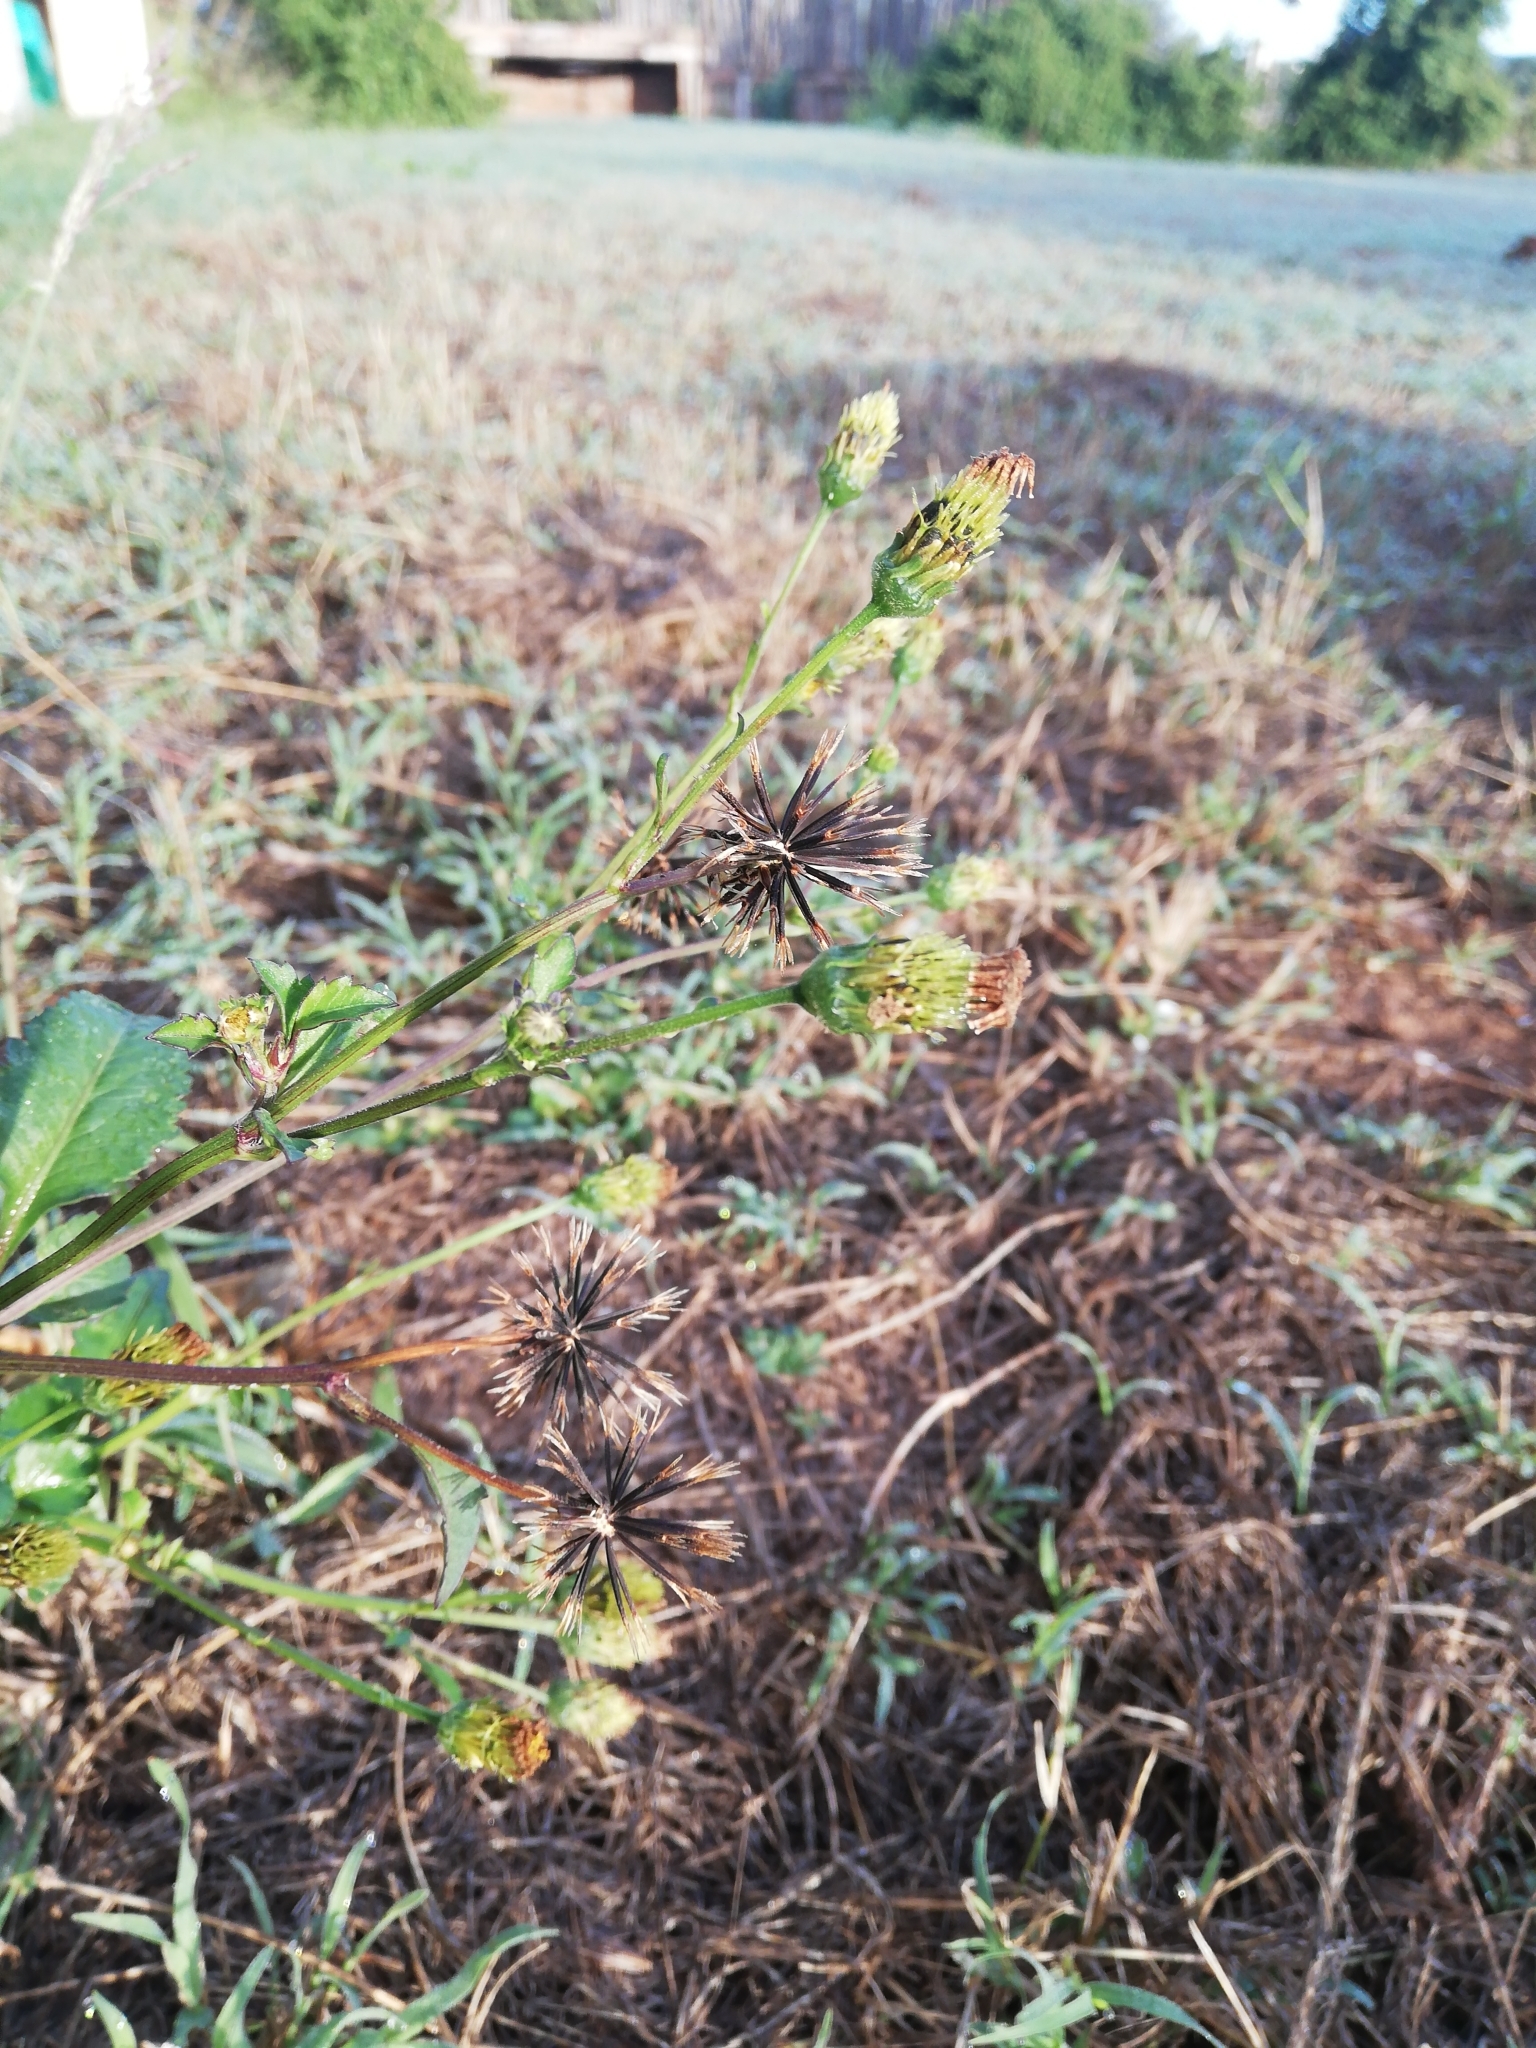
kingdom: Plantae
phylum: Tracheophyta
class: Magnoliopsida
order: Asterales
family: Asteraceae
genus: Bidens
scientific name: Bidens pilosa
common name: Black-jack
